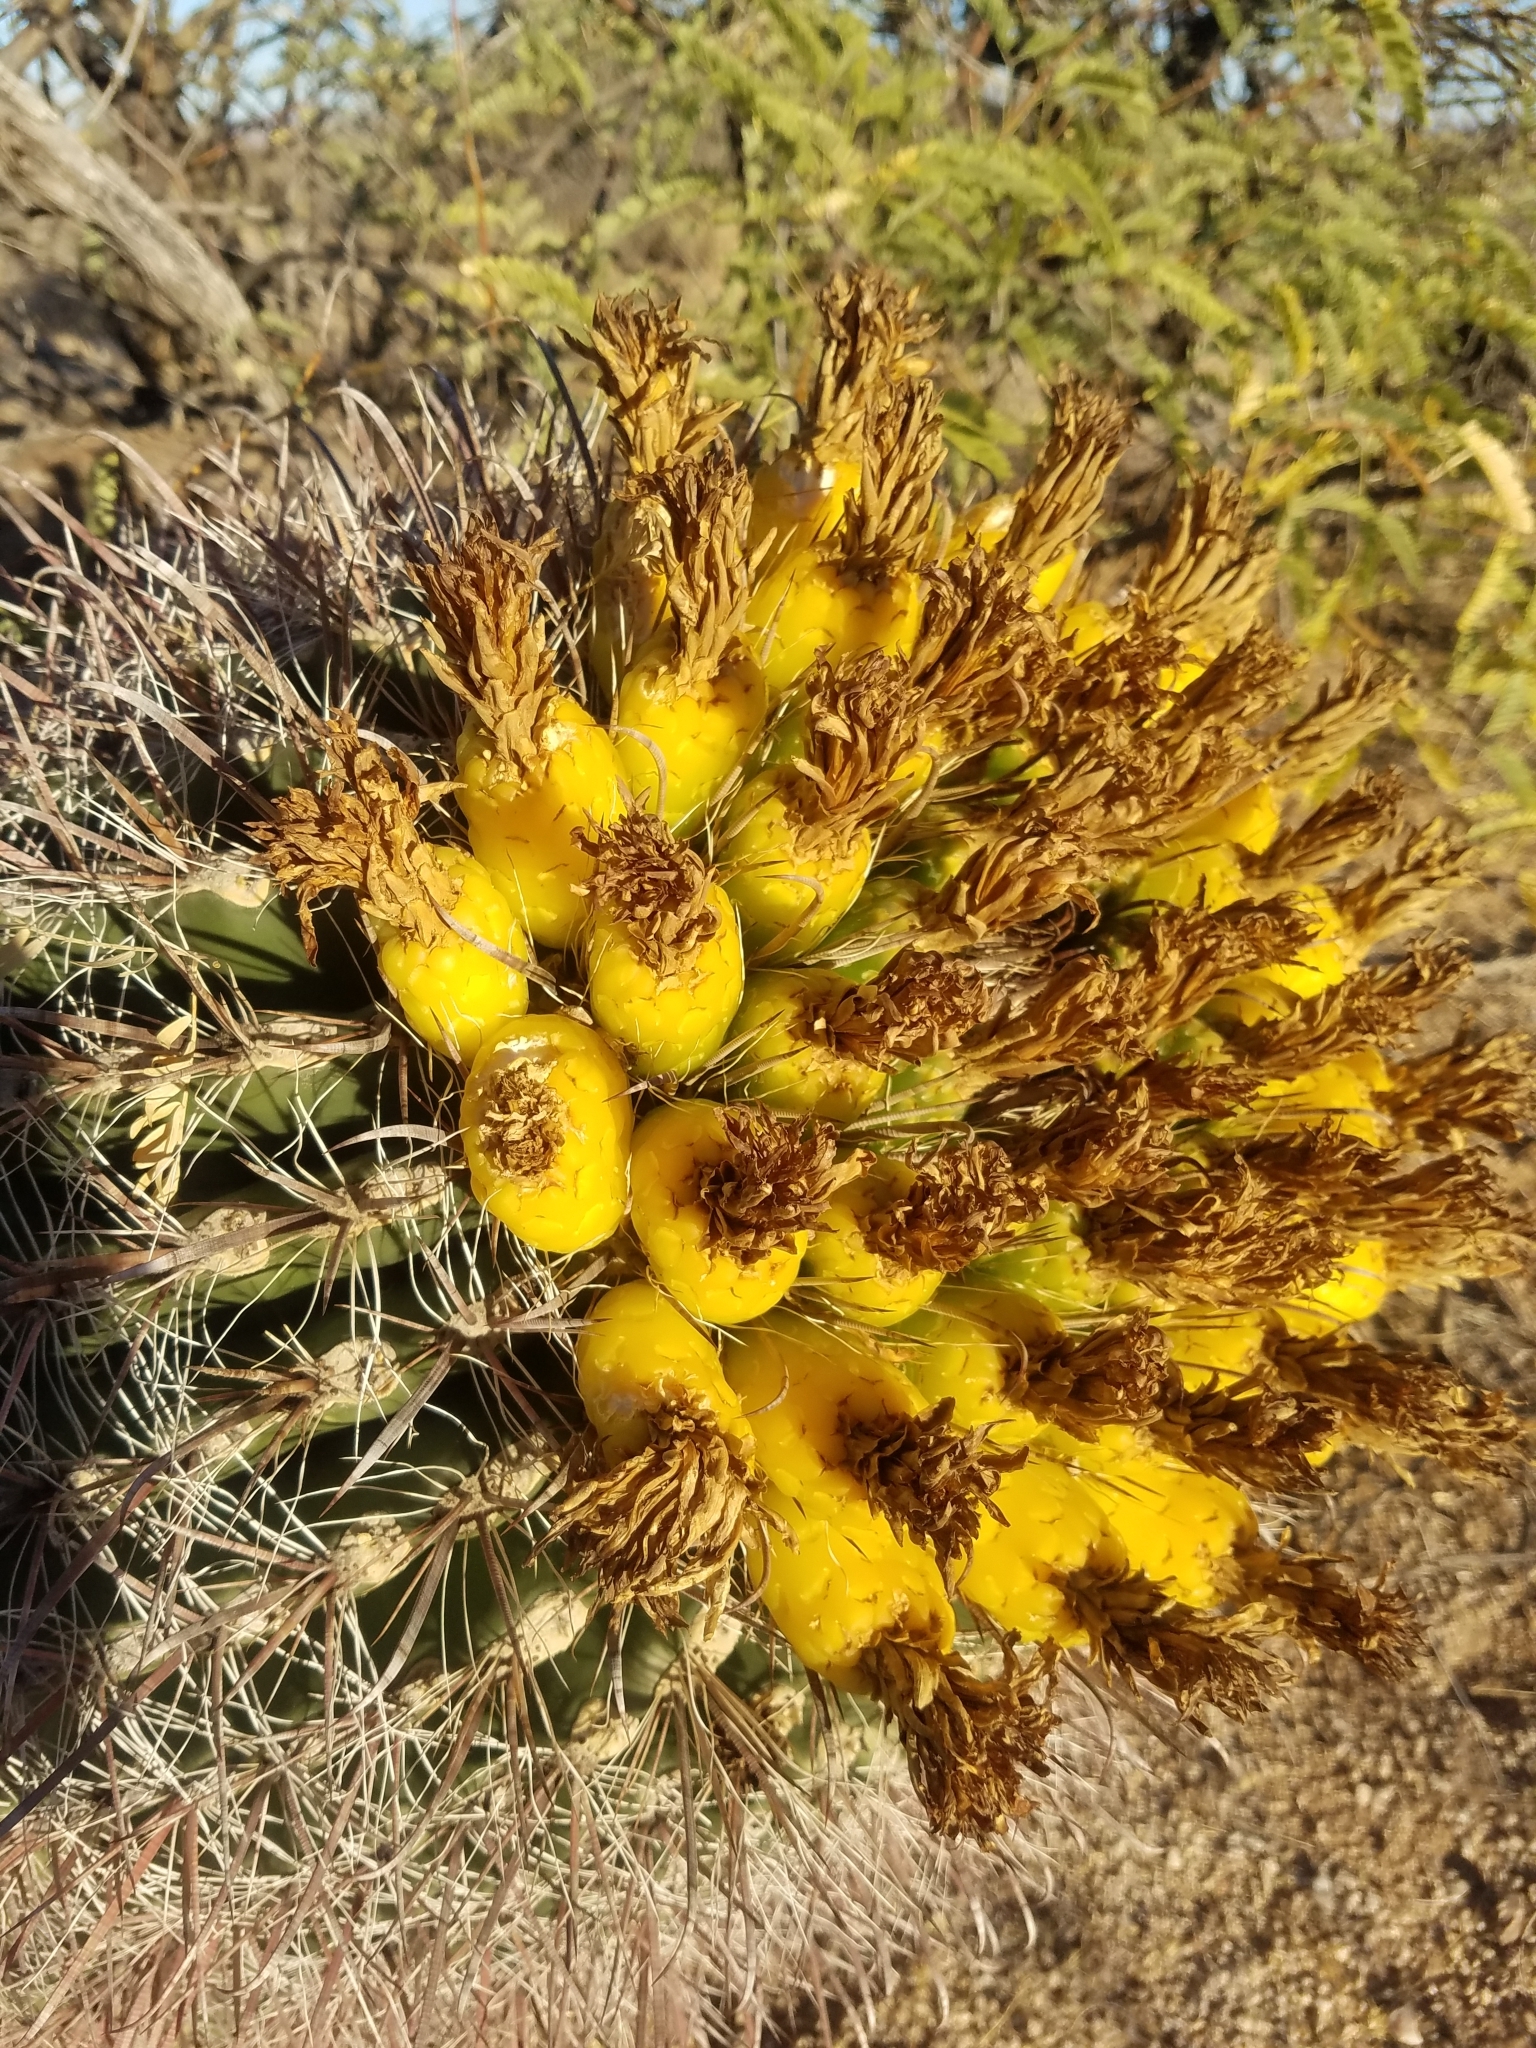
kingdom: Plantae
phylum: Tracheophyta
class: Magnoliopsida
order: Caryophyllales
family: Cactaceae
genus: Ferocactus
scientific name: Ferocactus wislizeni
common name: Candy barrel cactus
